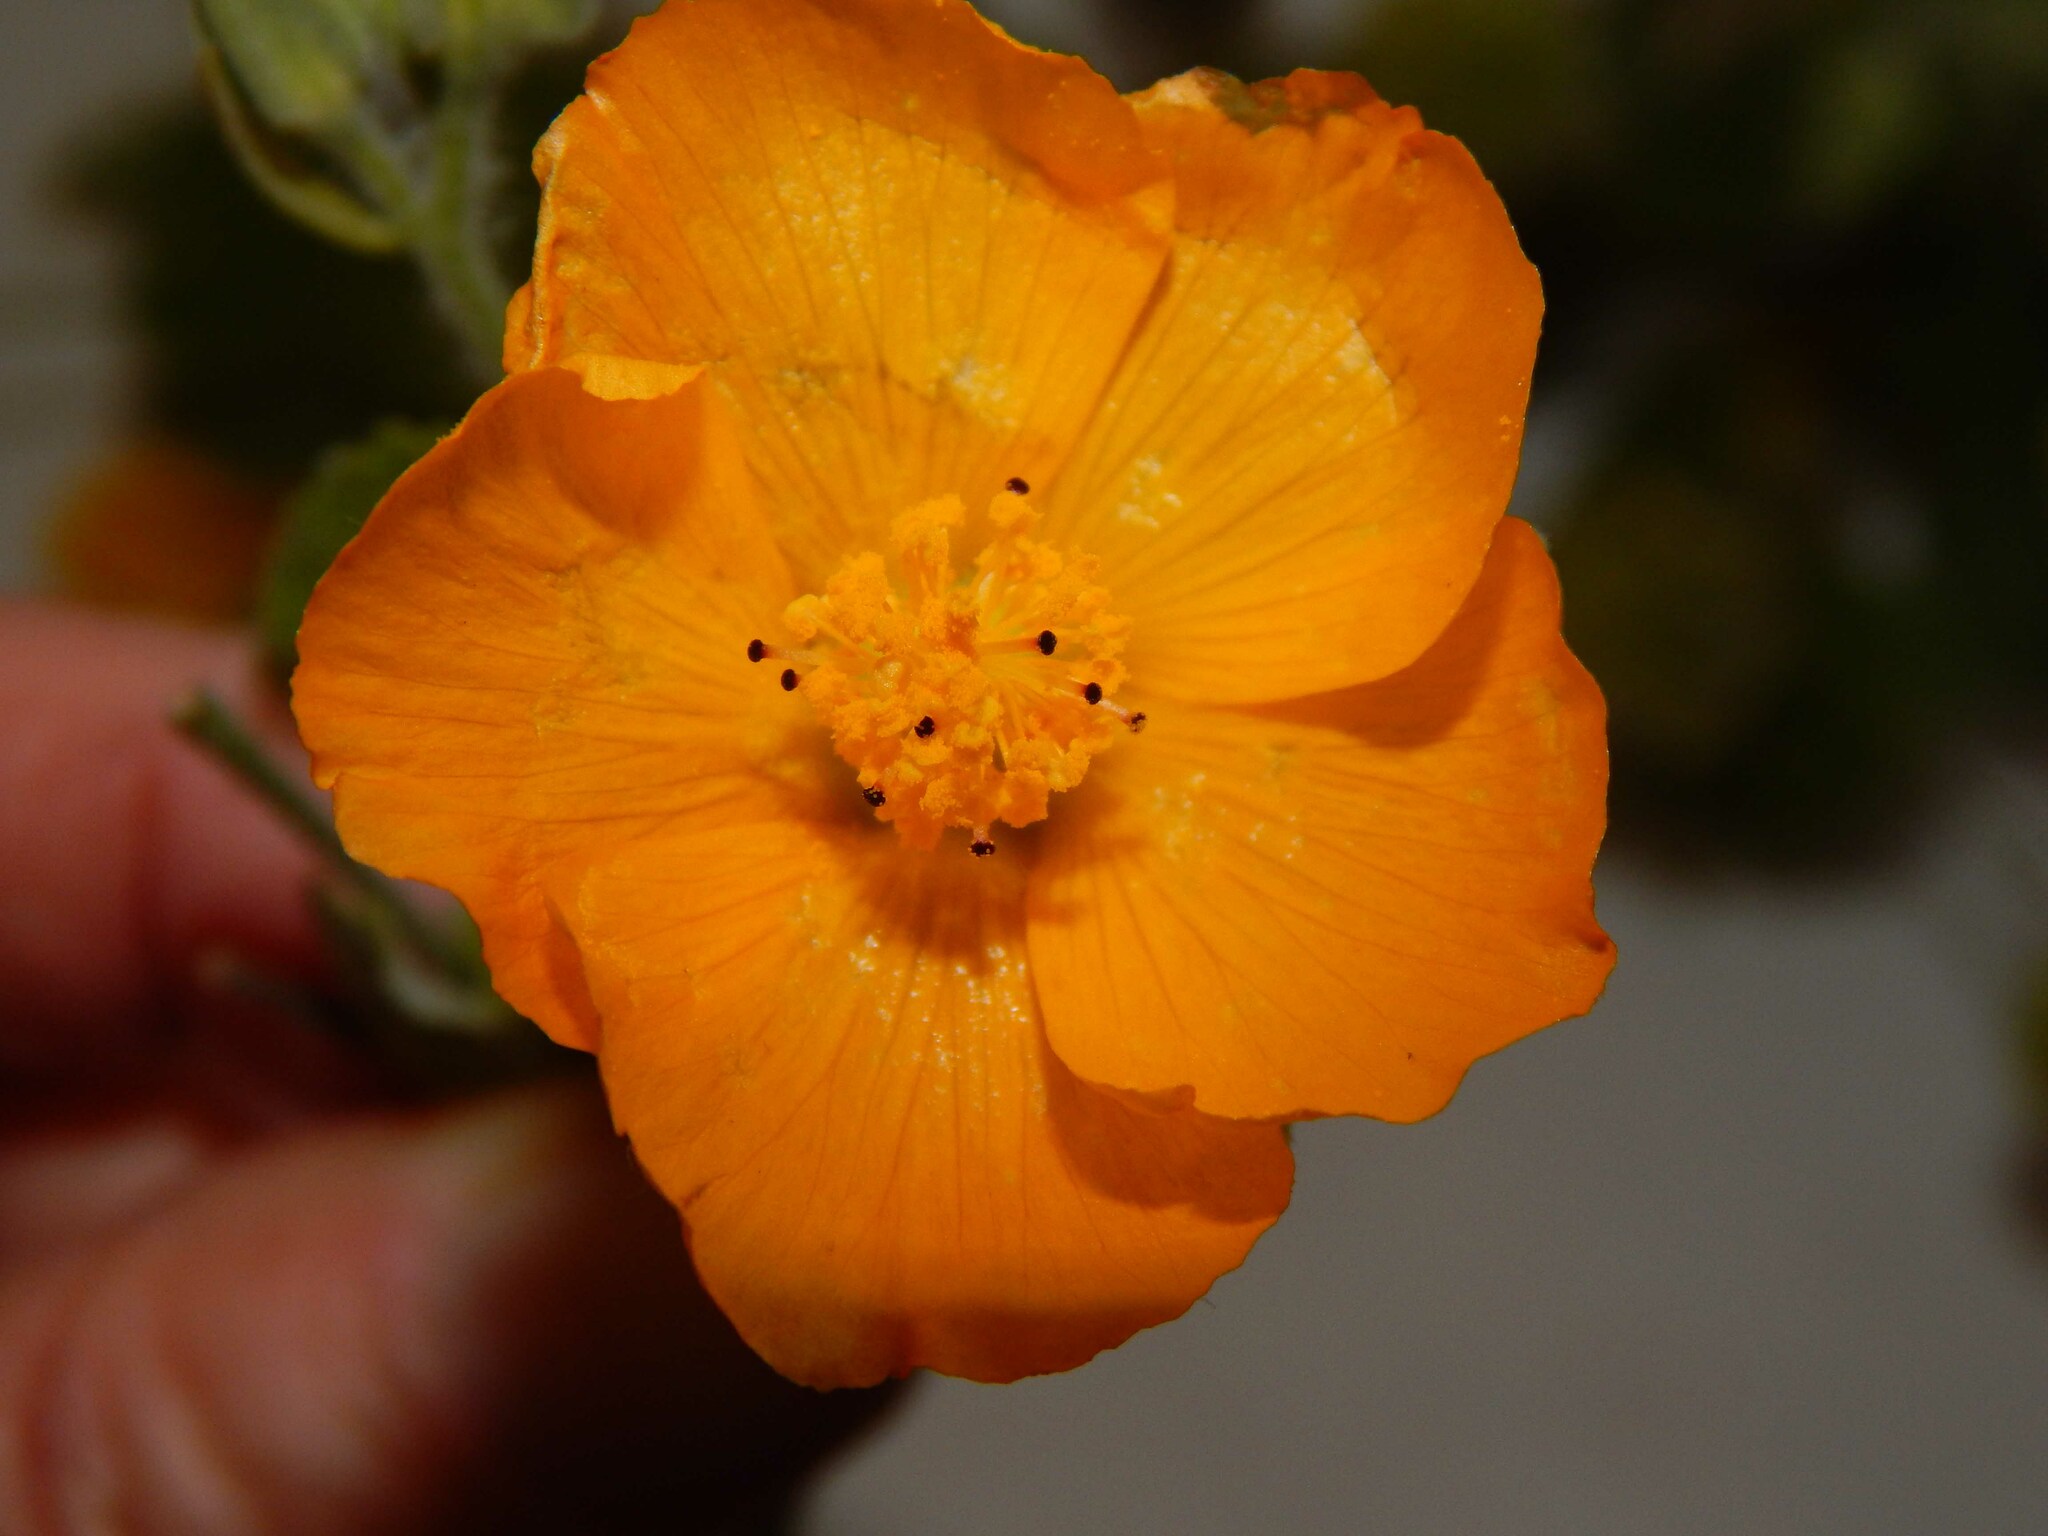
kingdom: Plantae
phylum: Tracheophyta
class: Magnoliopsida
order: Malvales
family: Malvaceae
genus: Abutilon
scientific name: Abutilon grandifolium
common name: Hairy abutilon
